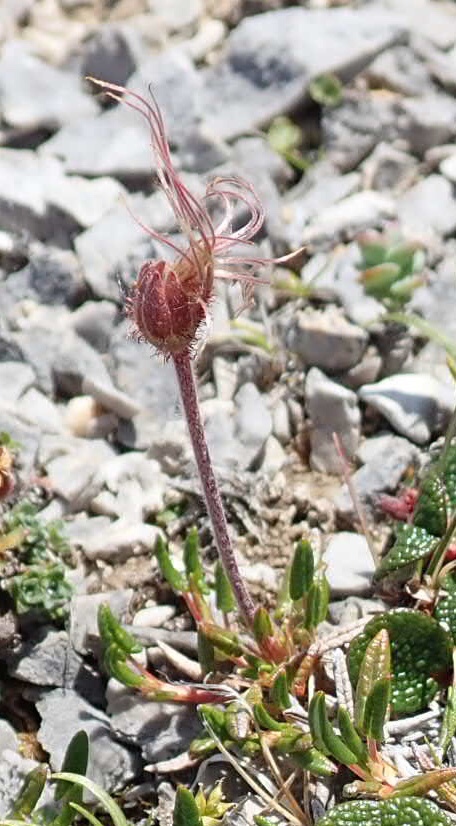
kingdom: Plantae
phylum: Tracheophyta
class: Magnoliopsida
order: Rosales
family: Rosaceae
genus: Dryas
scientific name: Dryas integrifolia
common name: Entire-leaved mountain avens
